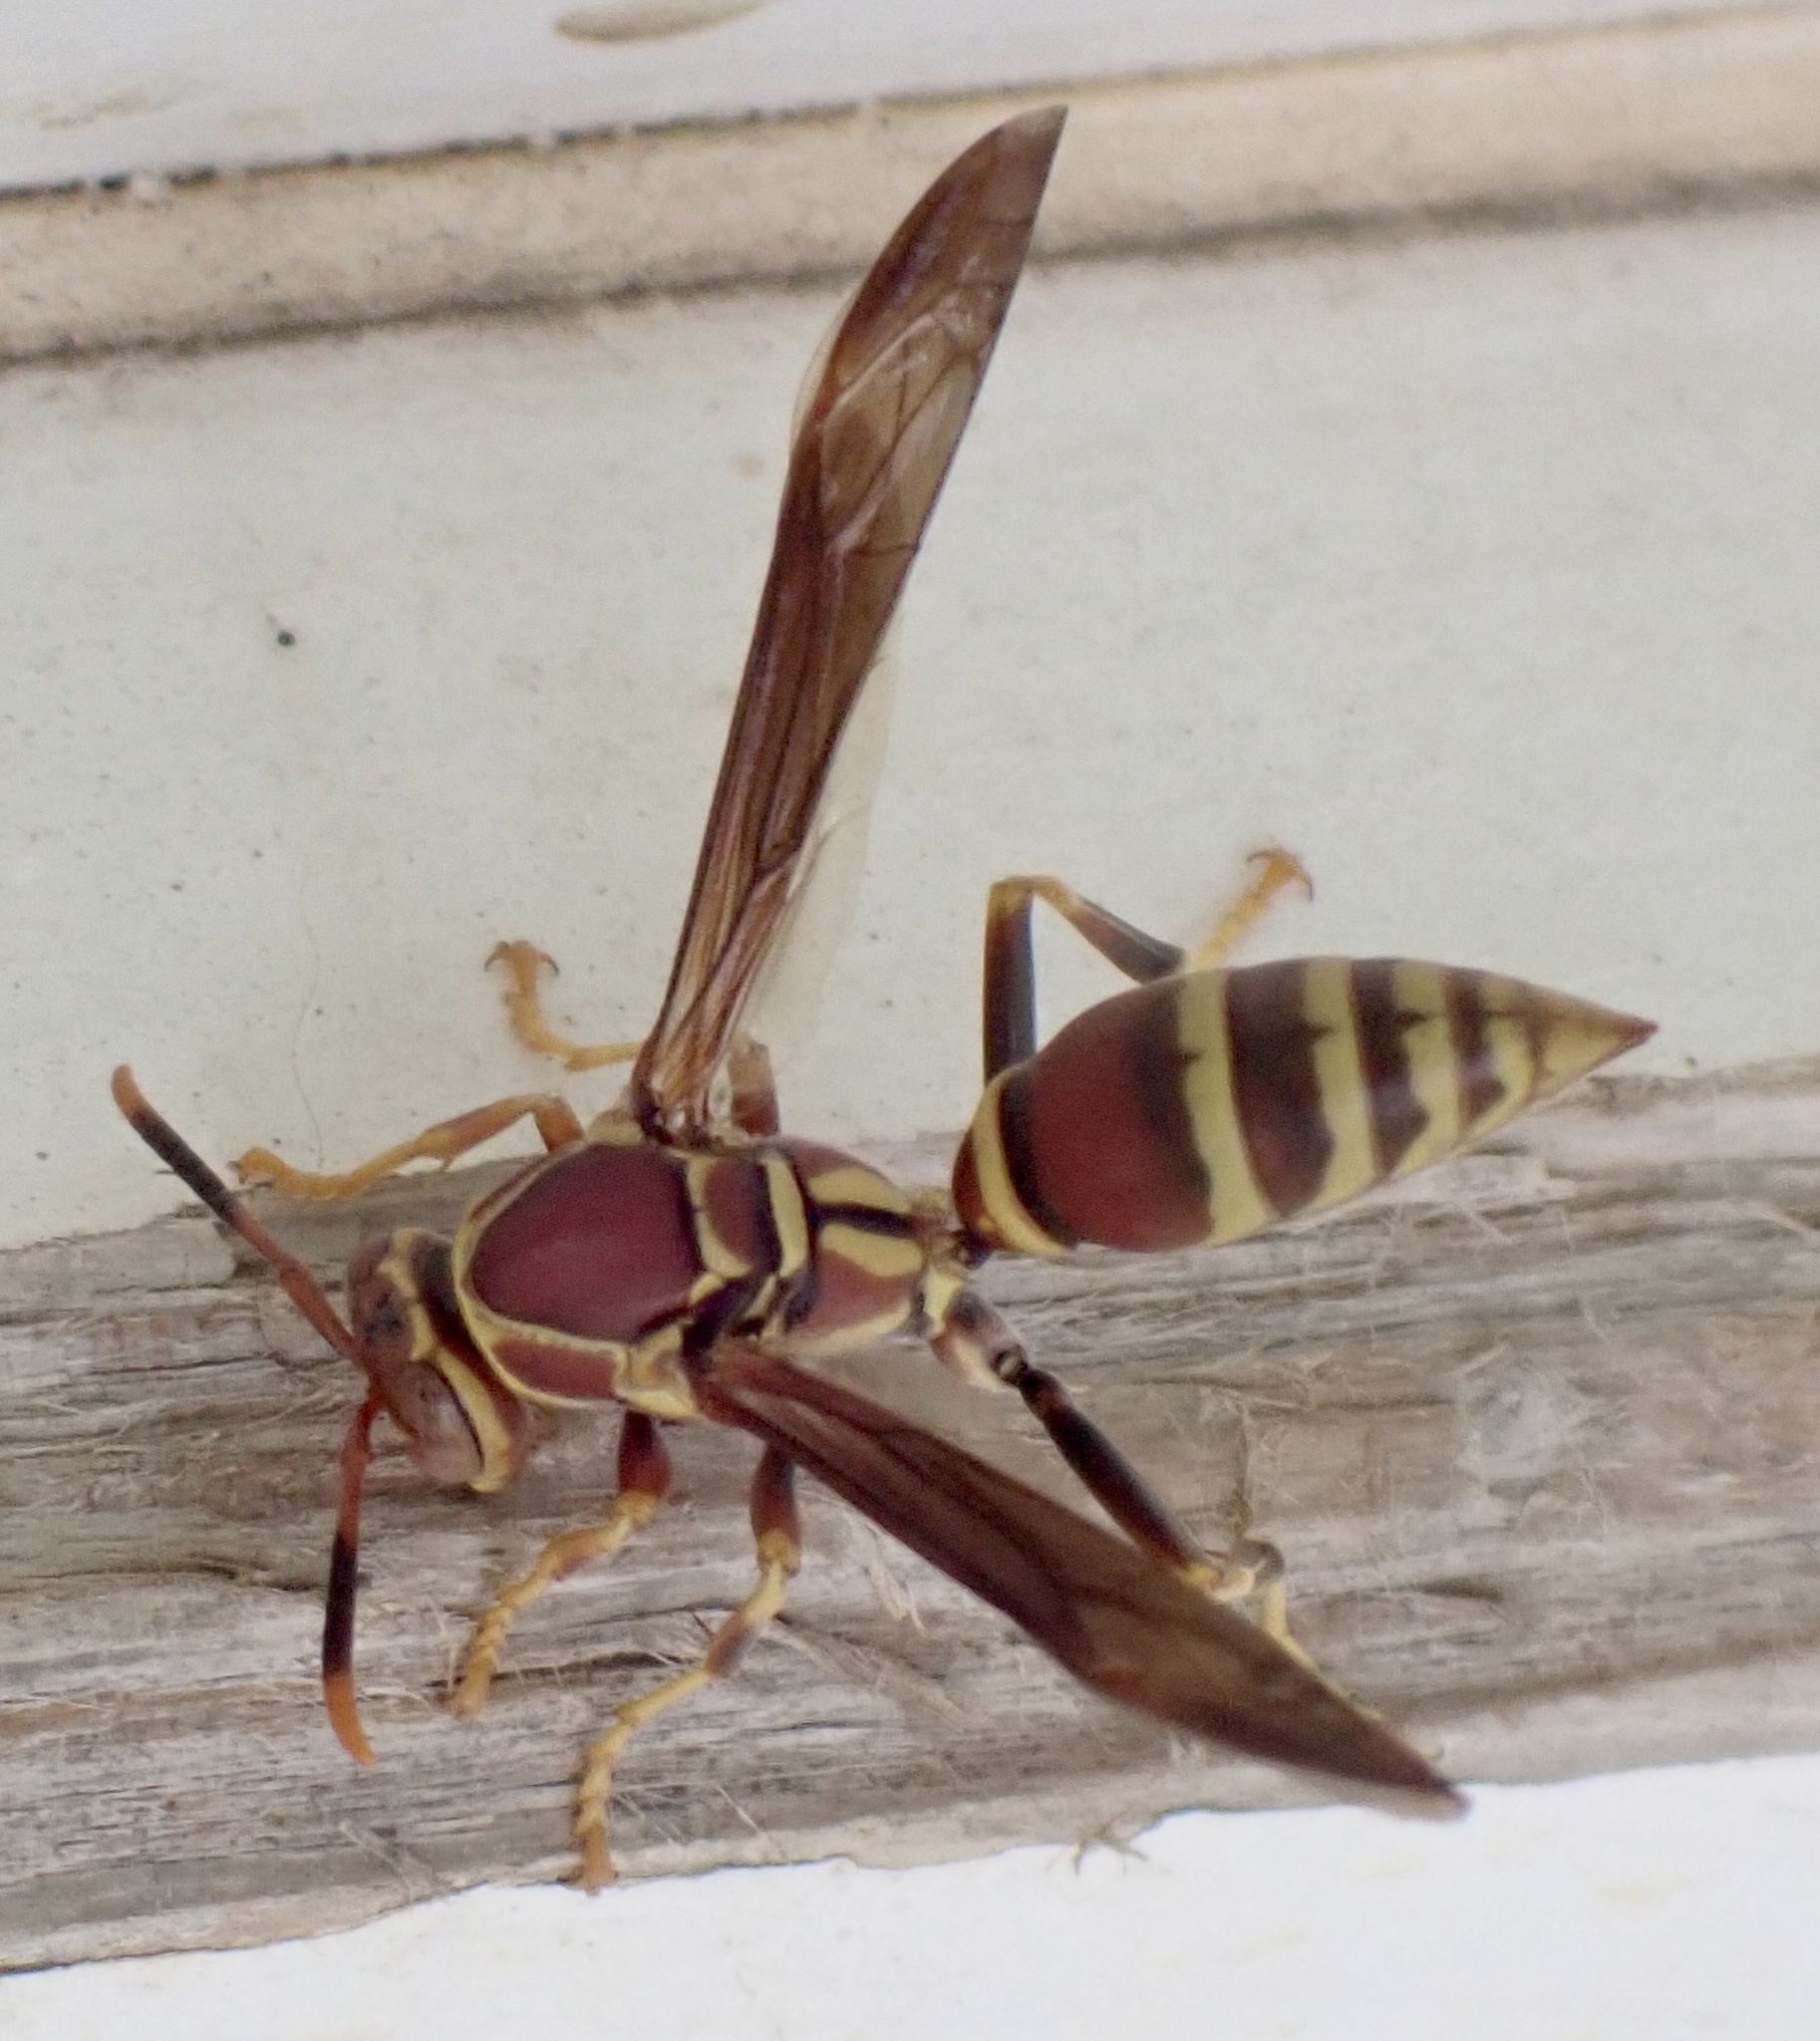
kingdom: Animalia
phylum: Arthropoda
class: Insecta
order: Hymenoptera
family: Eumenidae
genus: Polistes
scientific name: Polistes exclamans
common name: Paper wasp
